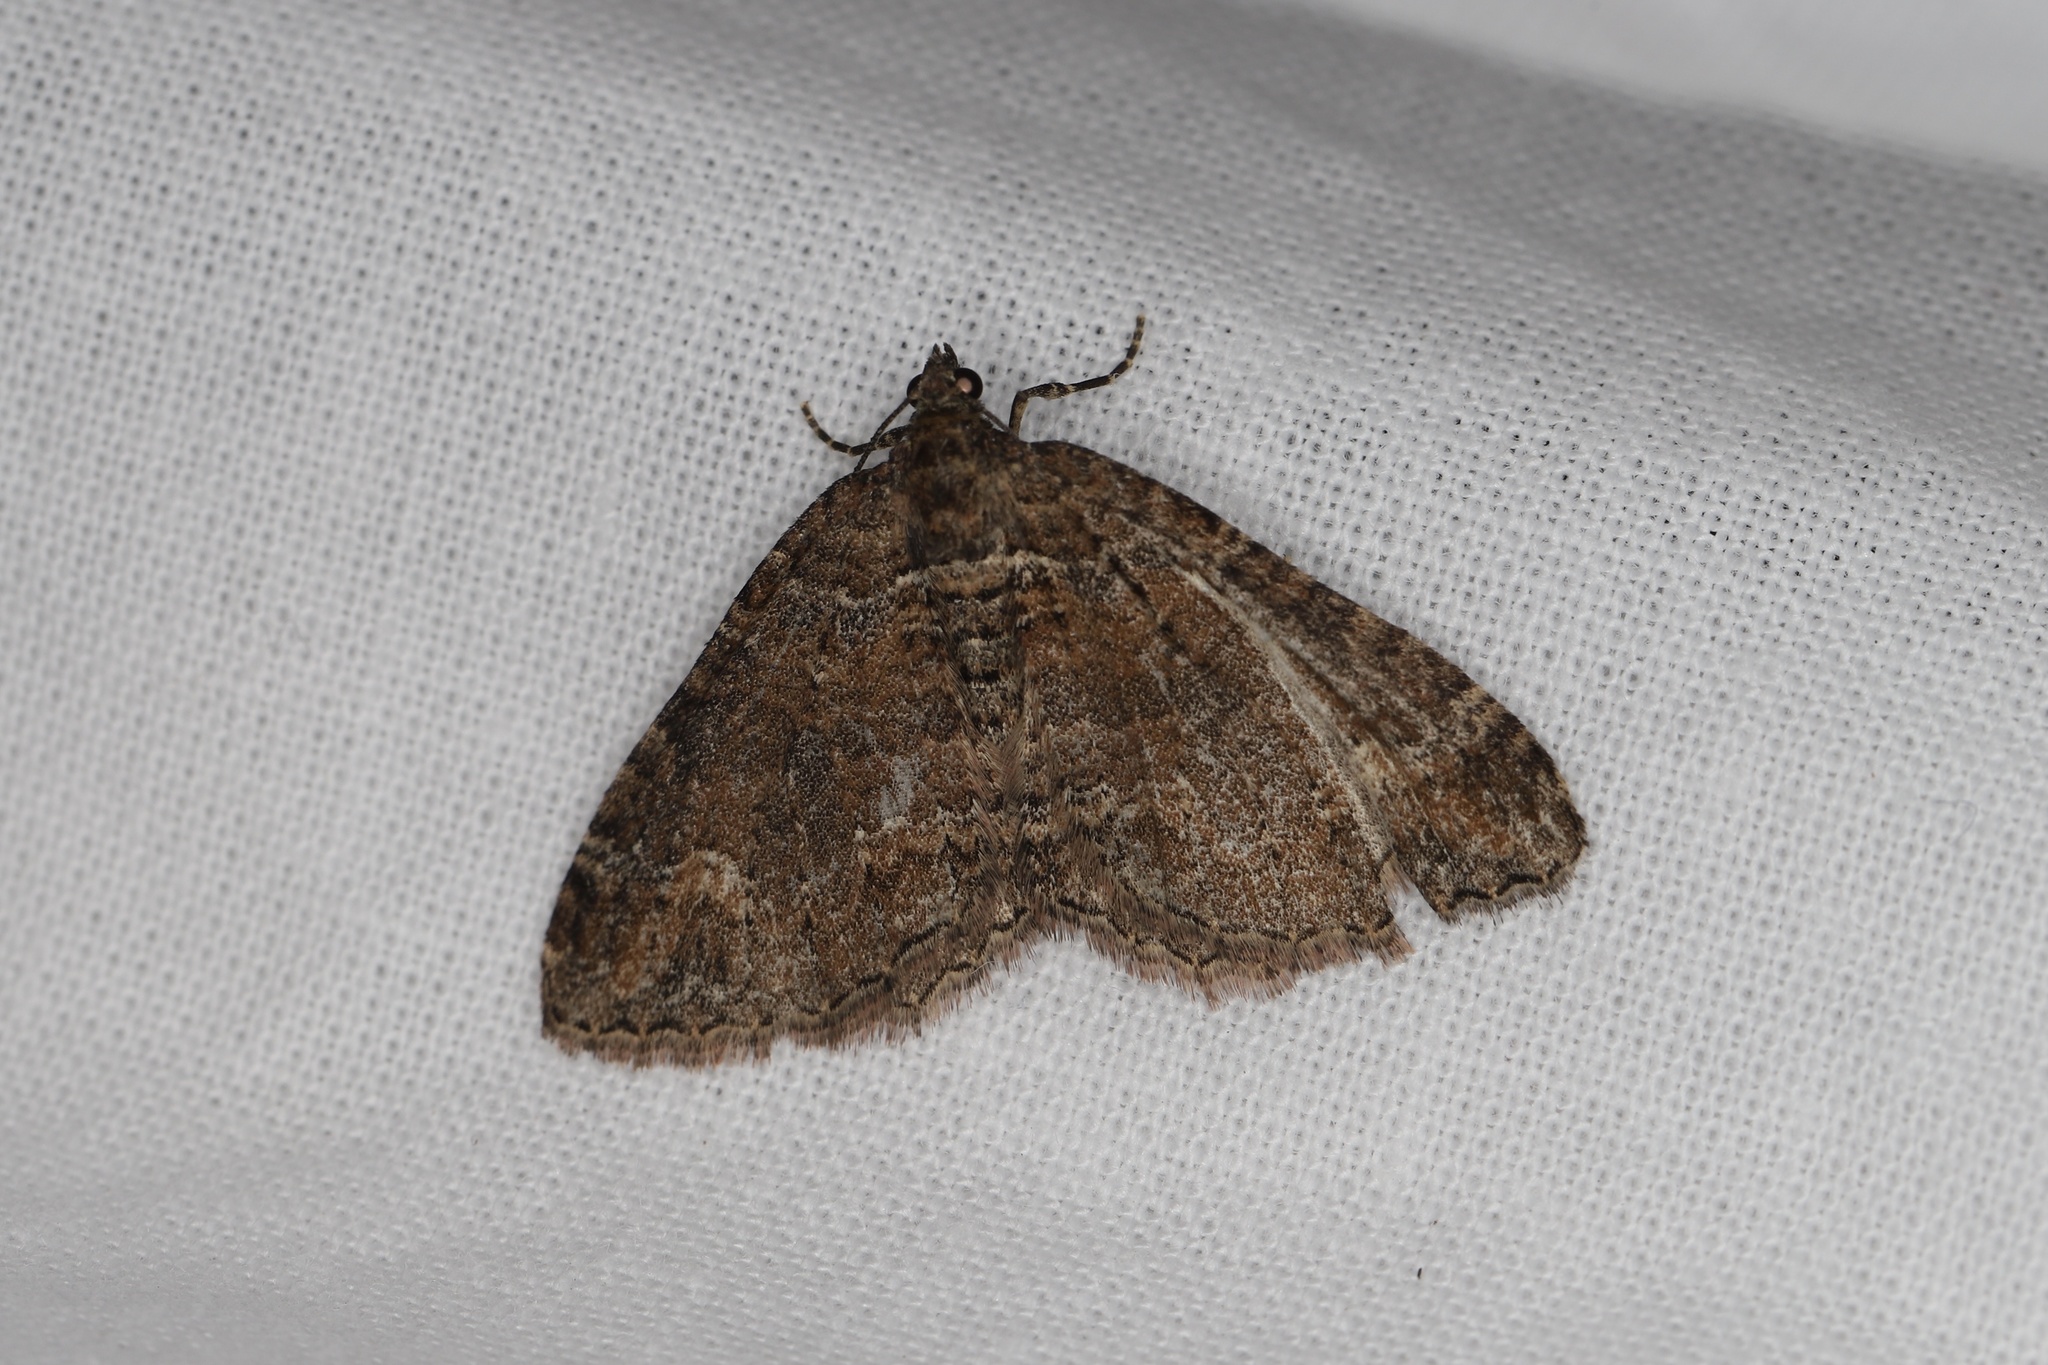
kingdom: Animalia
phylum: Arthropoda
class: Insecta
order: Lepidoptera
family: Geometridae
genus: Catarhoe
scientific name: Catarhoe basochesiata
